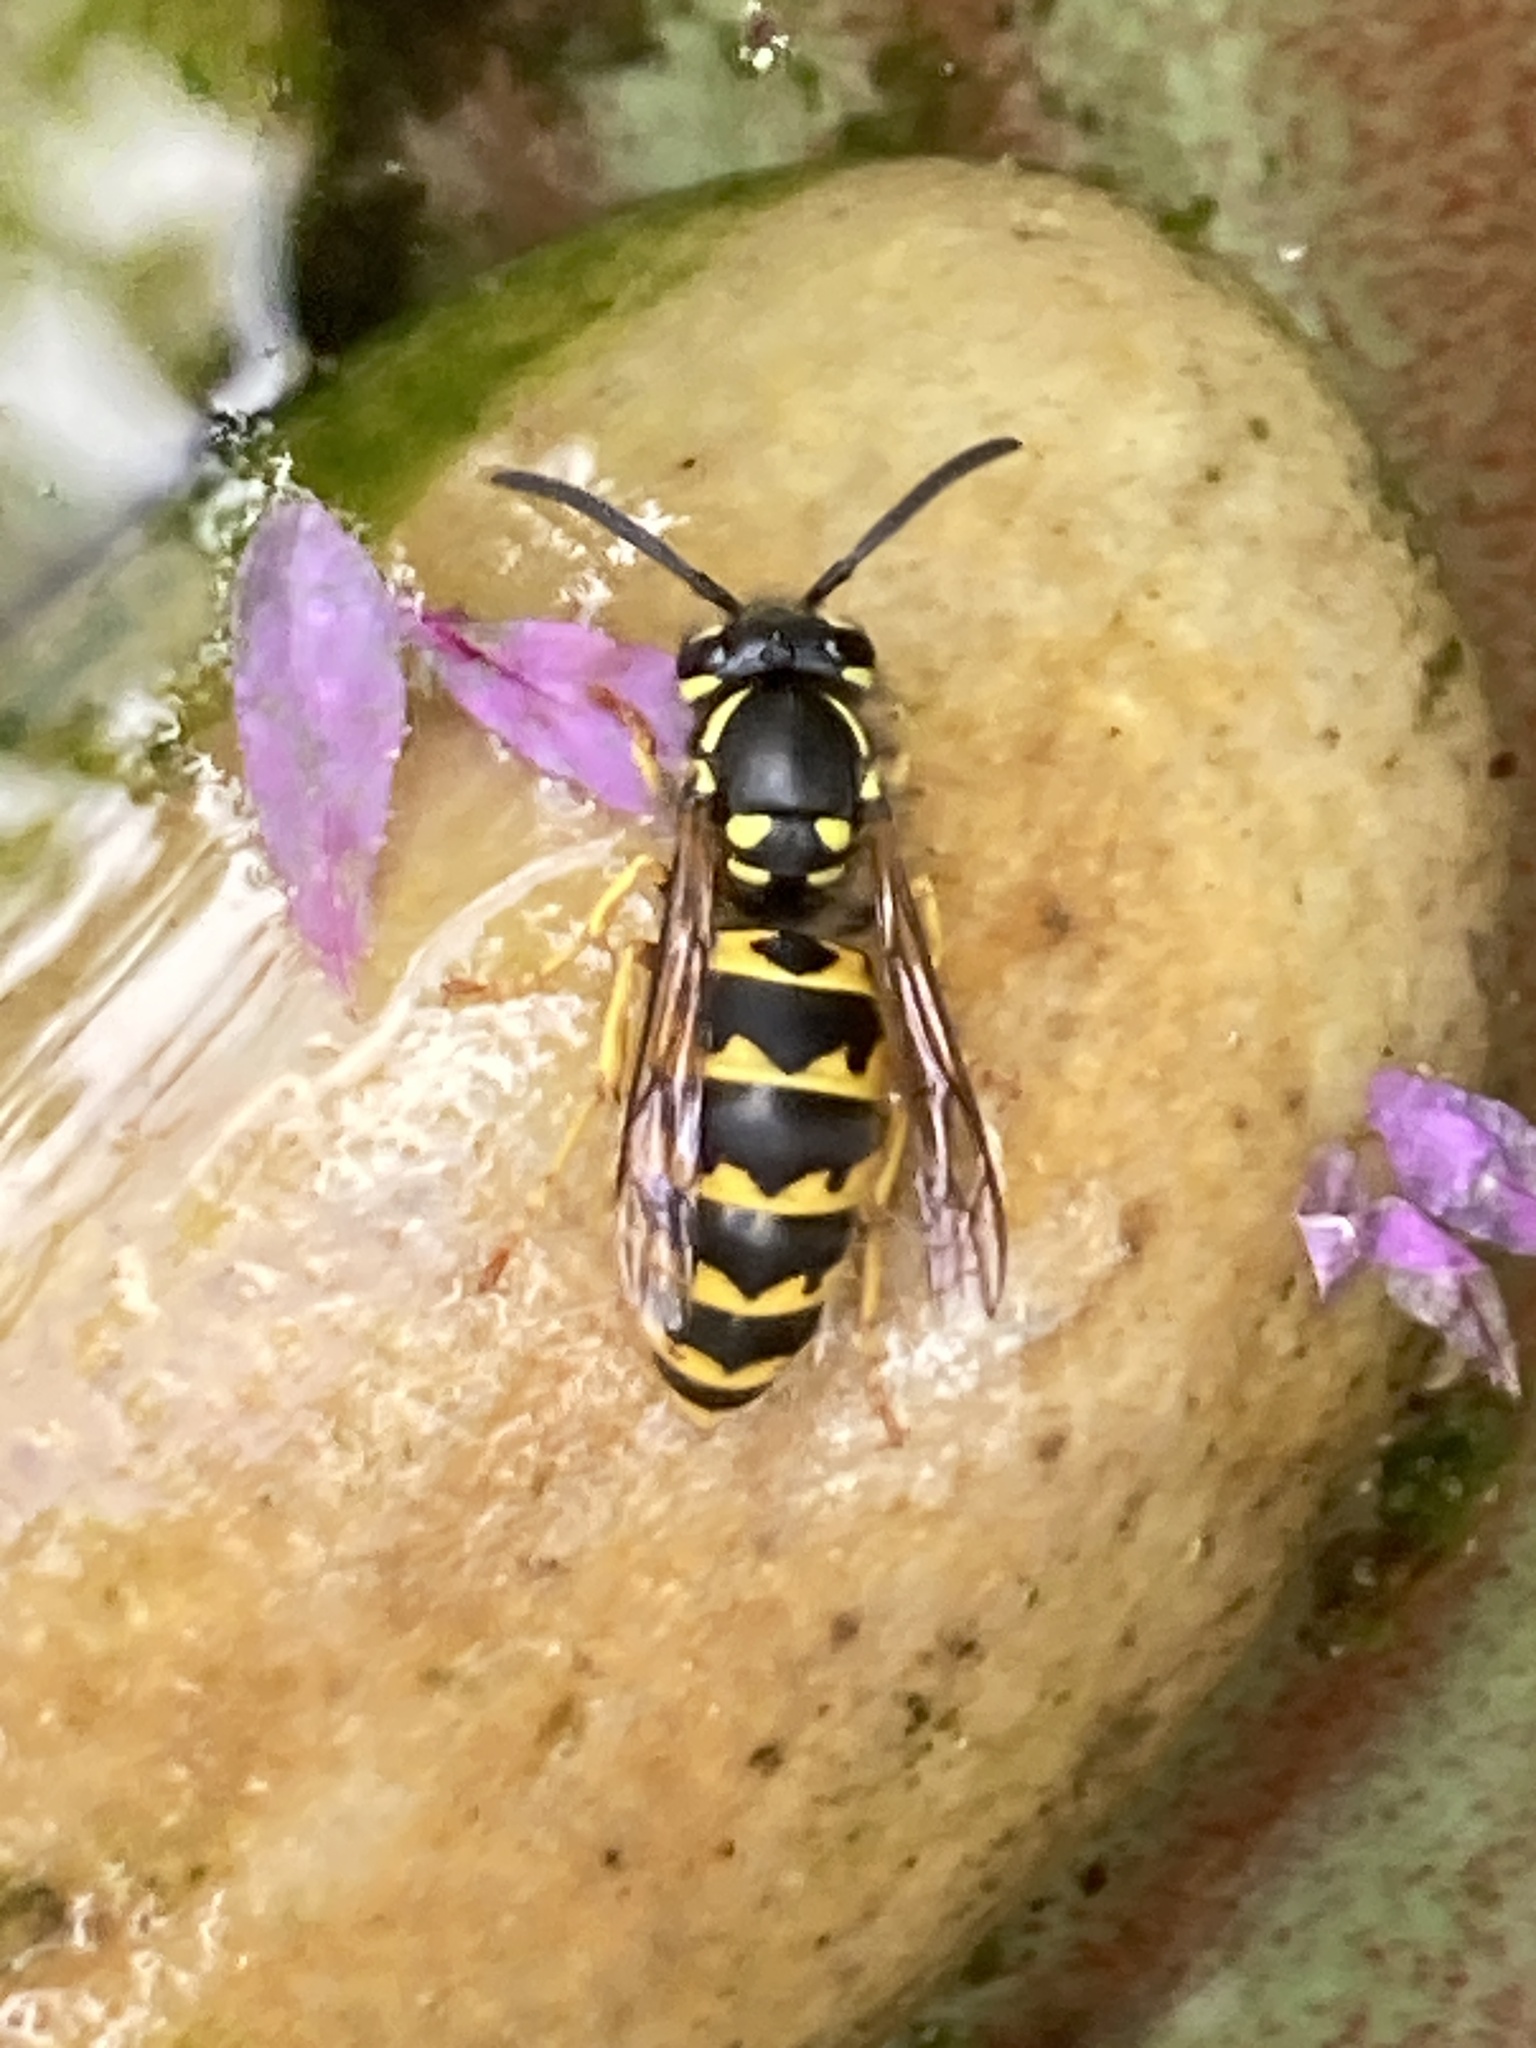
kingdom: Animalia
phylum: Arthropoda
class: Insecta
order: Hymenoptera
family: Vespidae
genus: Vespula
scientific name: Vespula germanica
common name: German wasp
